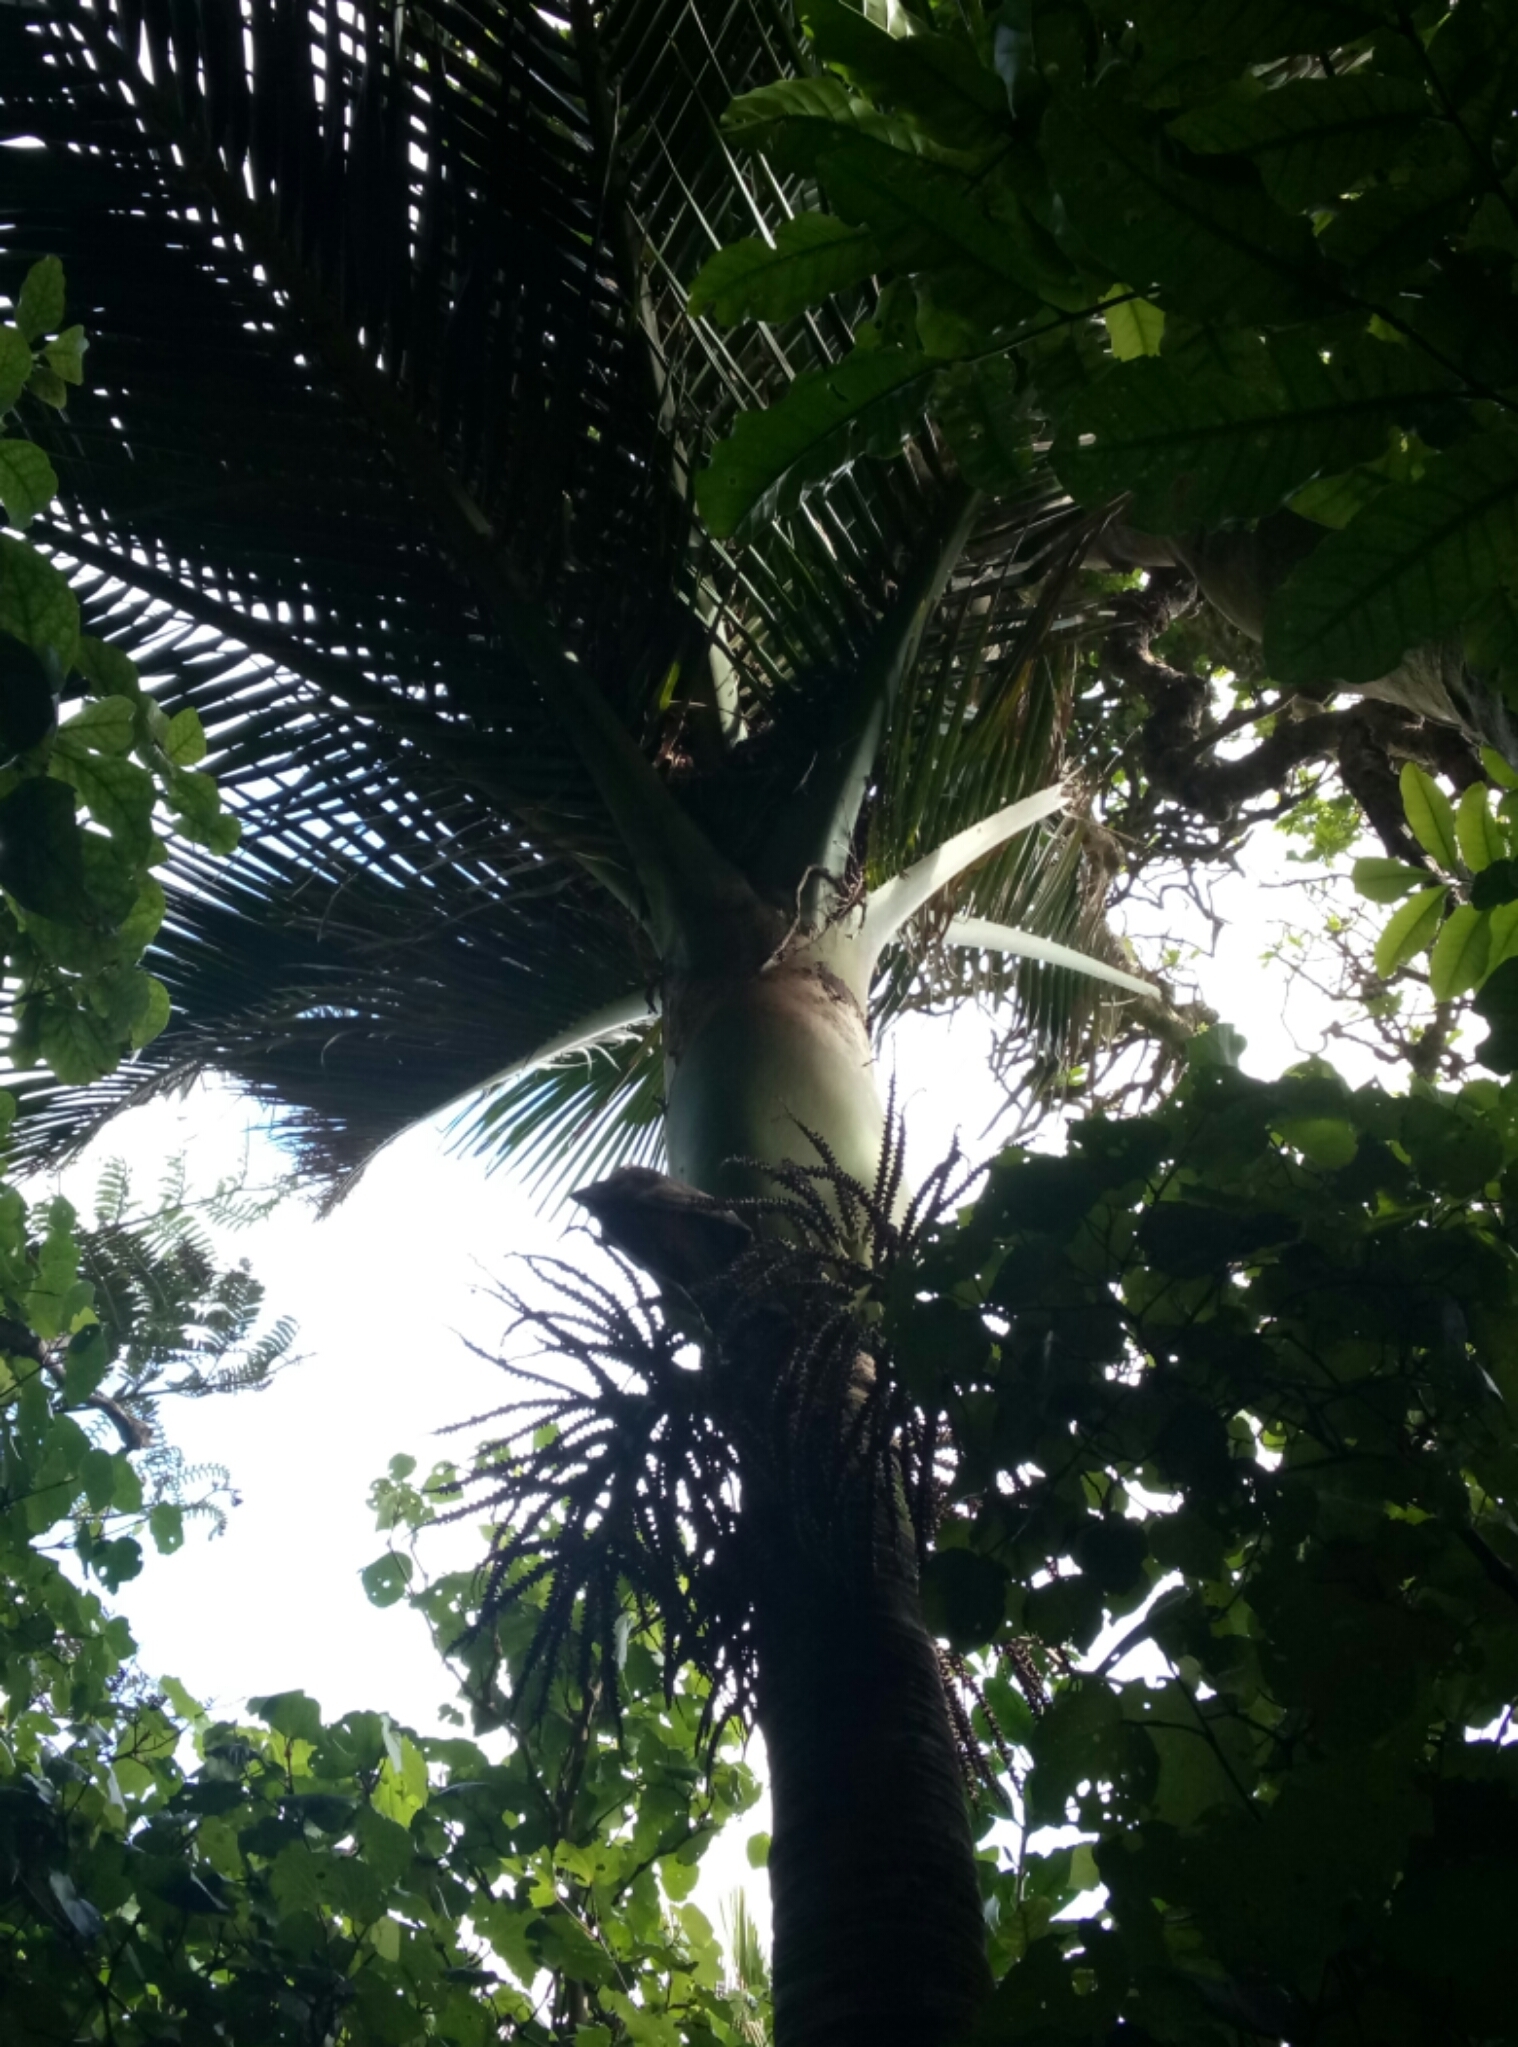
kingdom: Plantae
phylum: Tracheophyta
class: Liliopsida
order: Arecales
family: Arecaceae
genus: Rhopalostylis
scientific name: Rhopalostylis sapida
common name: Feather-duster palm
